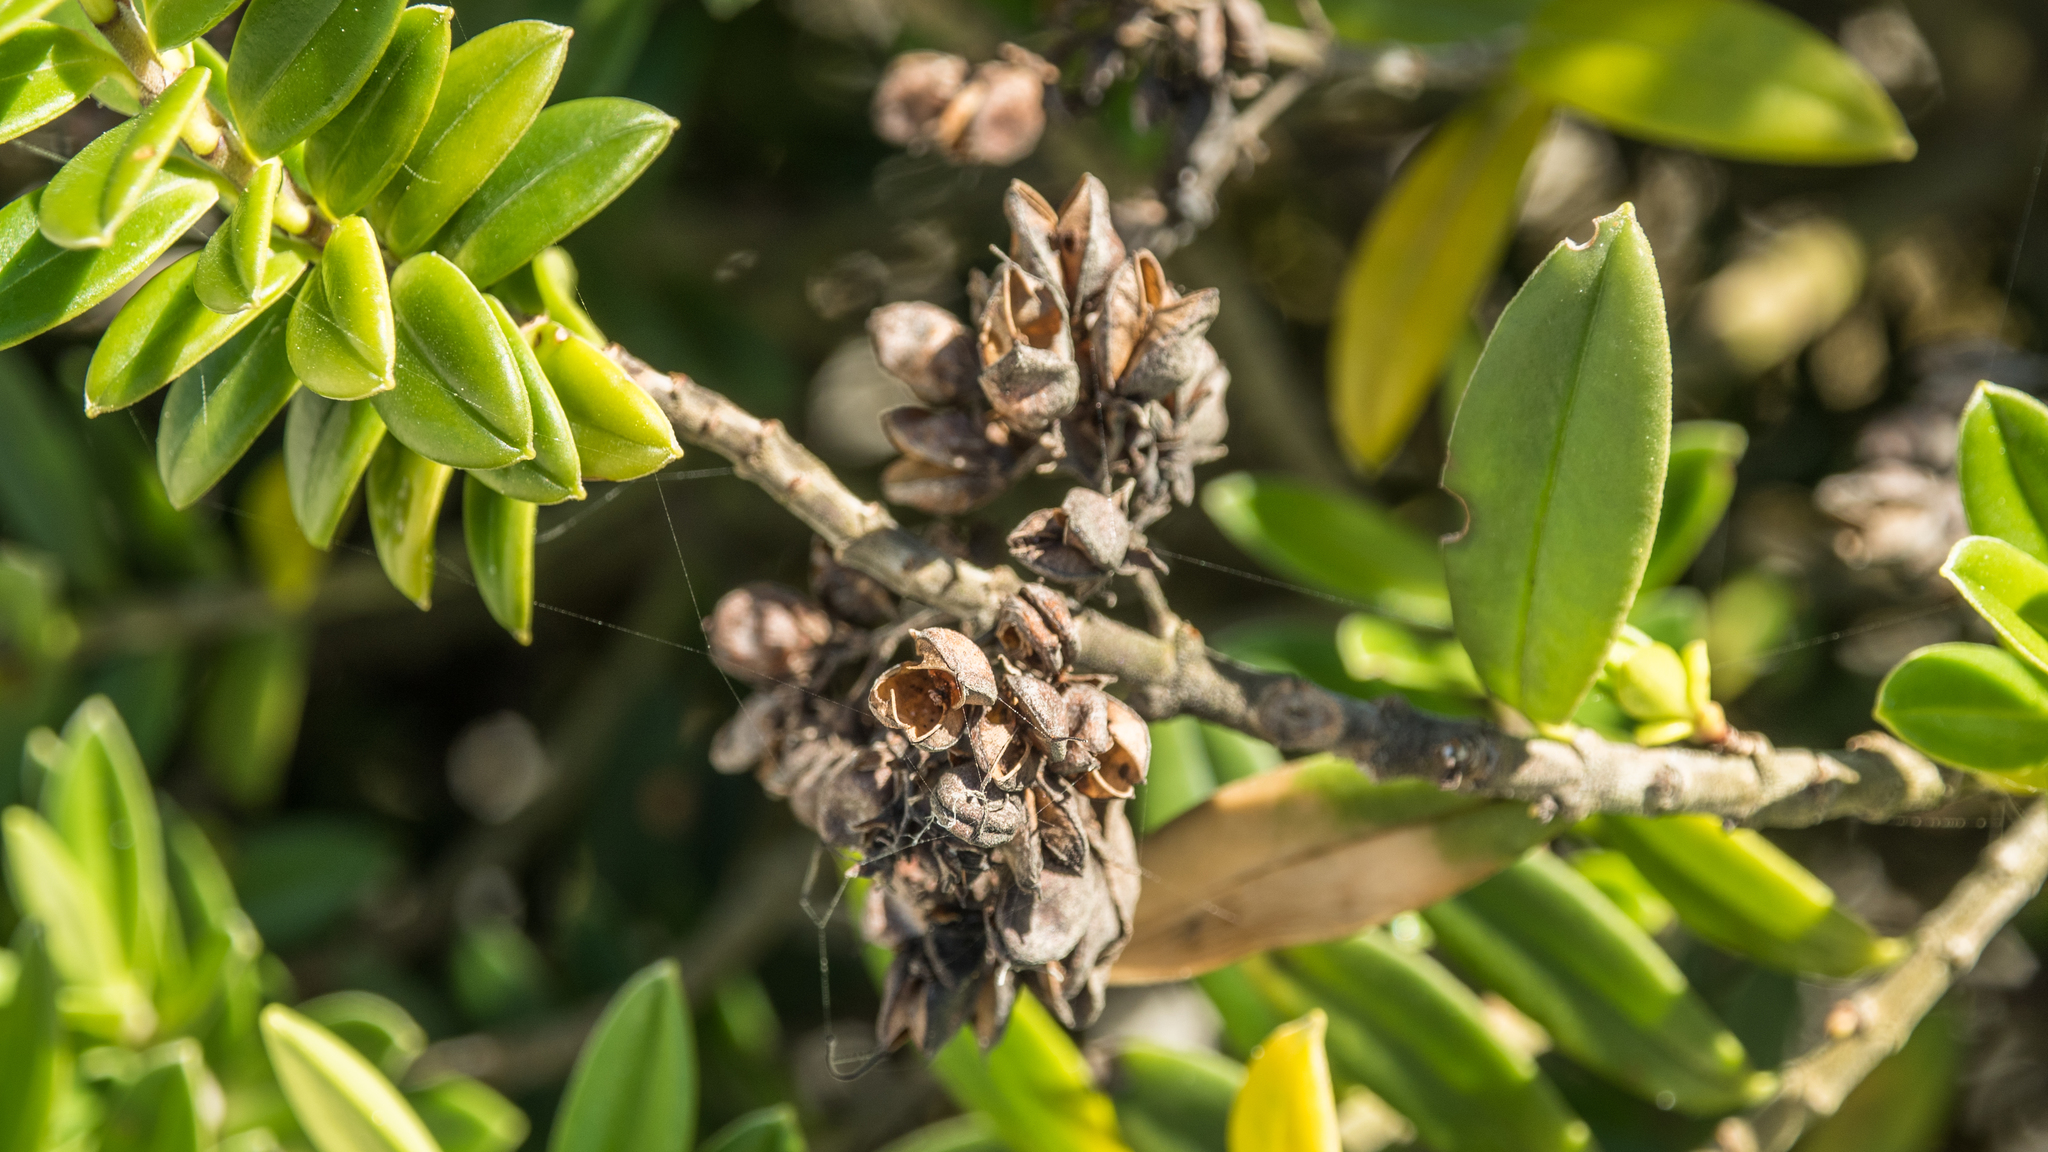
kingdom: Plantae
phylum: Tracheophyta
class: Magnoliopsida
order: Lamiales
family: Plantaginaceae
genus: Veronica
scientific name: Veronica elliptica
